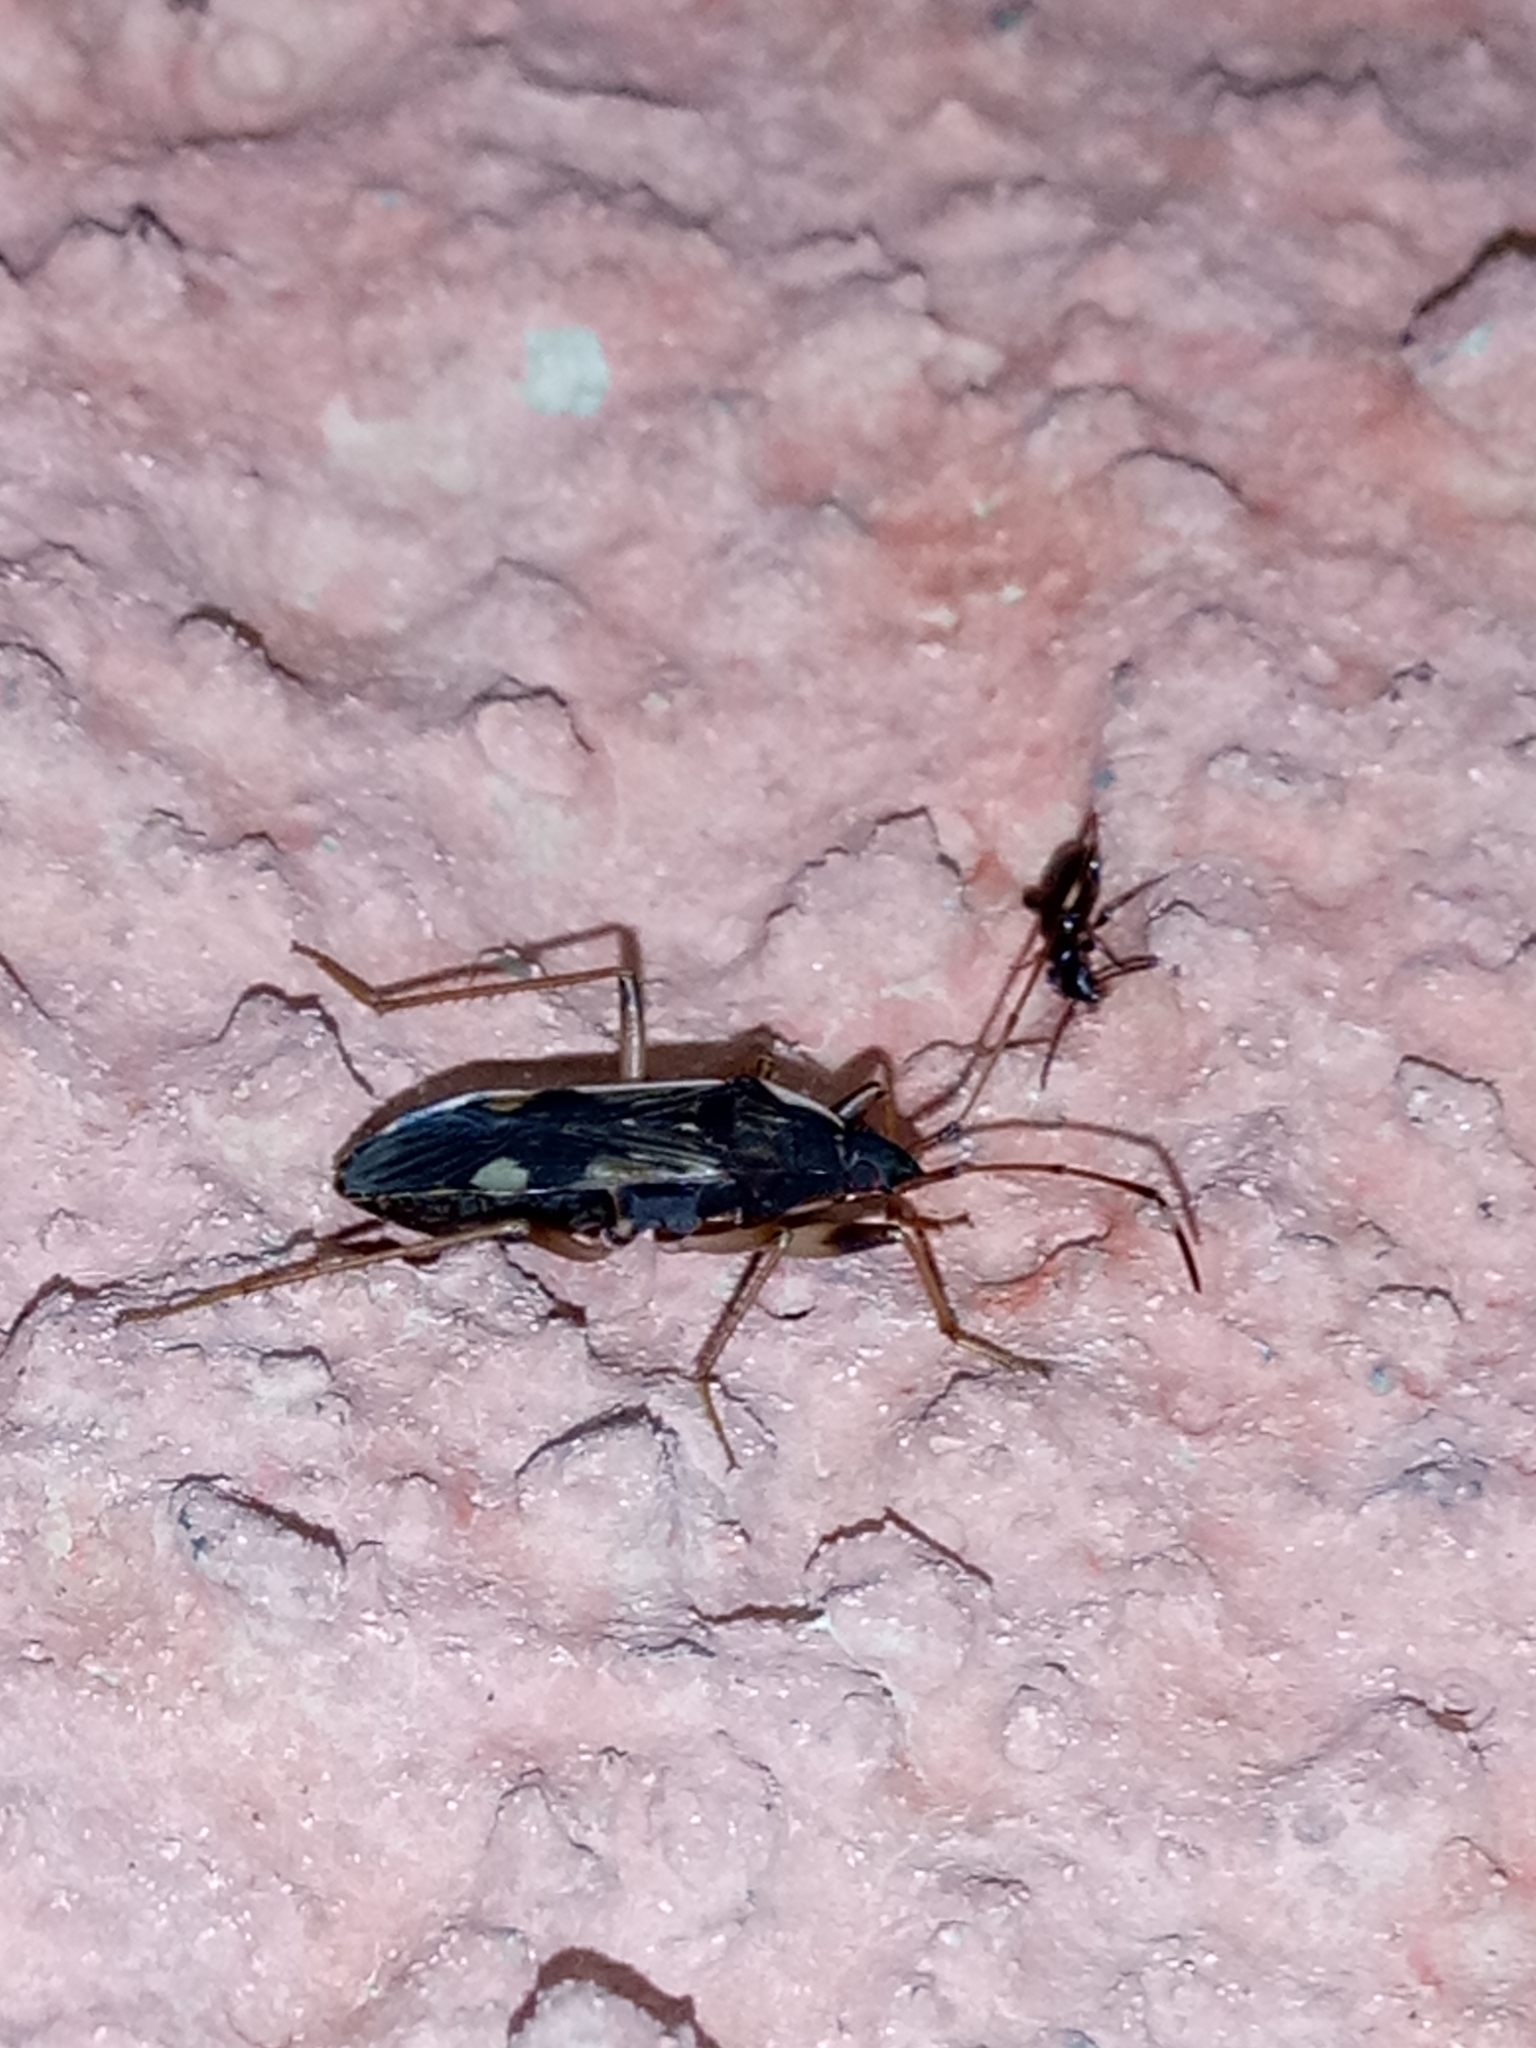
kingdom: Animalia
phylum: Arthropoda
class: Insecta
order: Hemiptera
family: Rhyparochromidae
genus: Dieuches
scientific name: Dieuches armatipes
